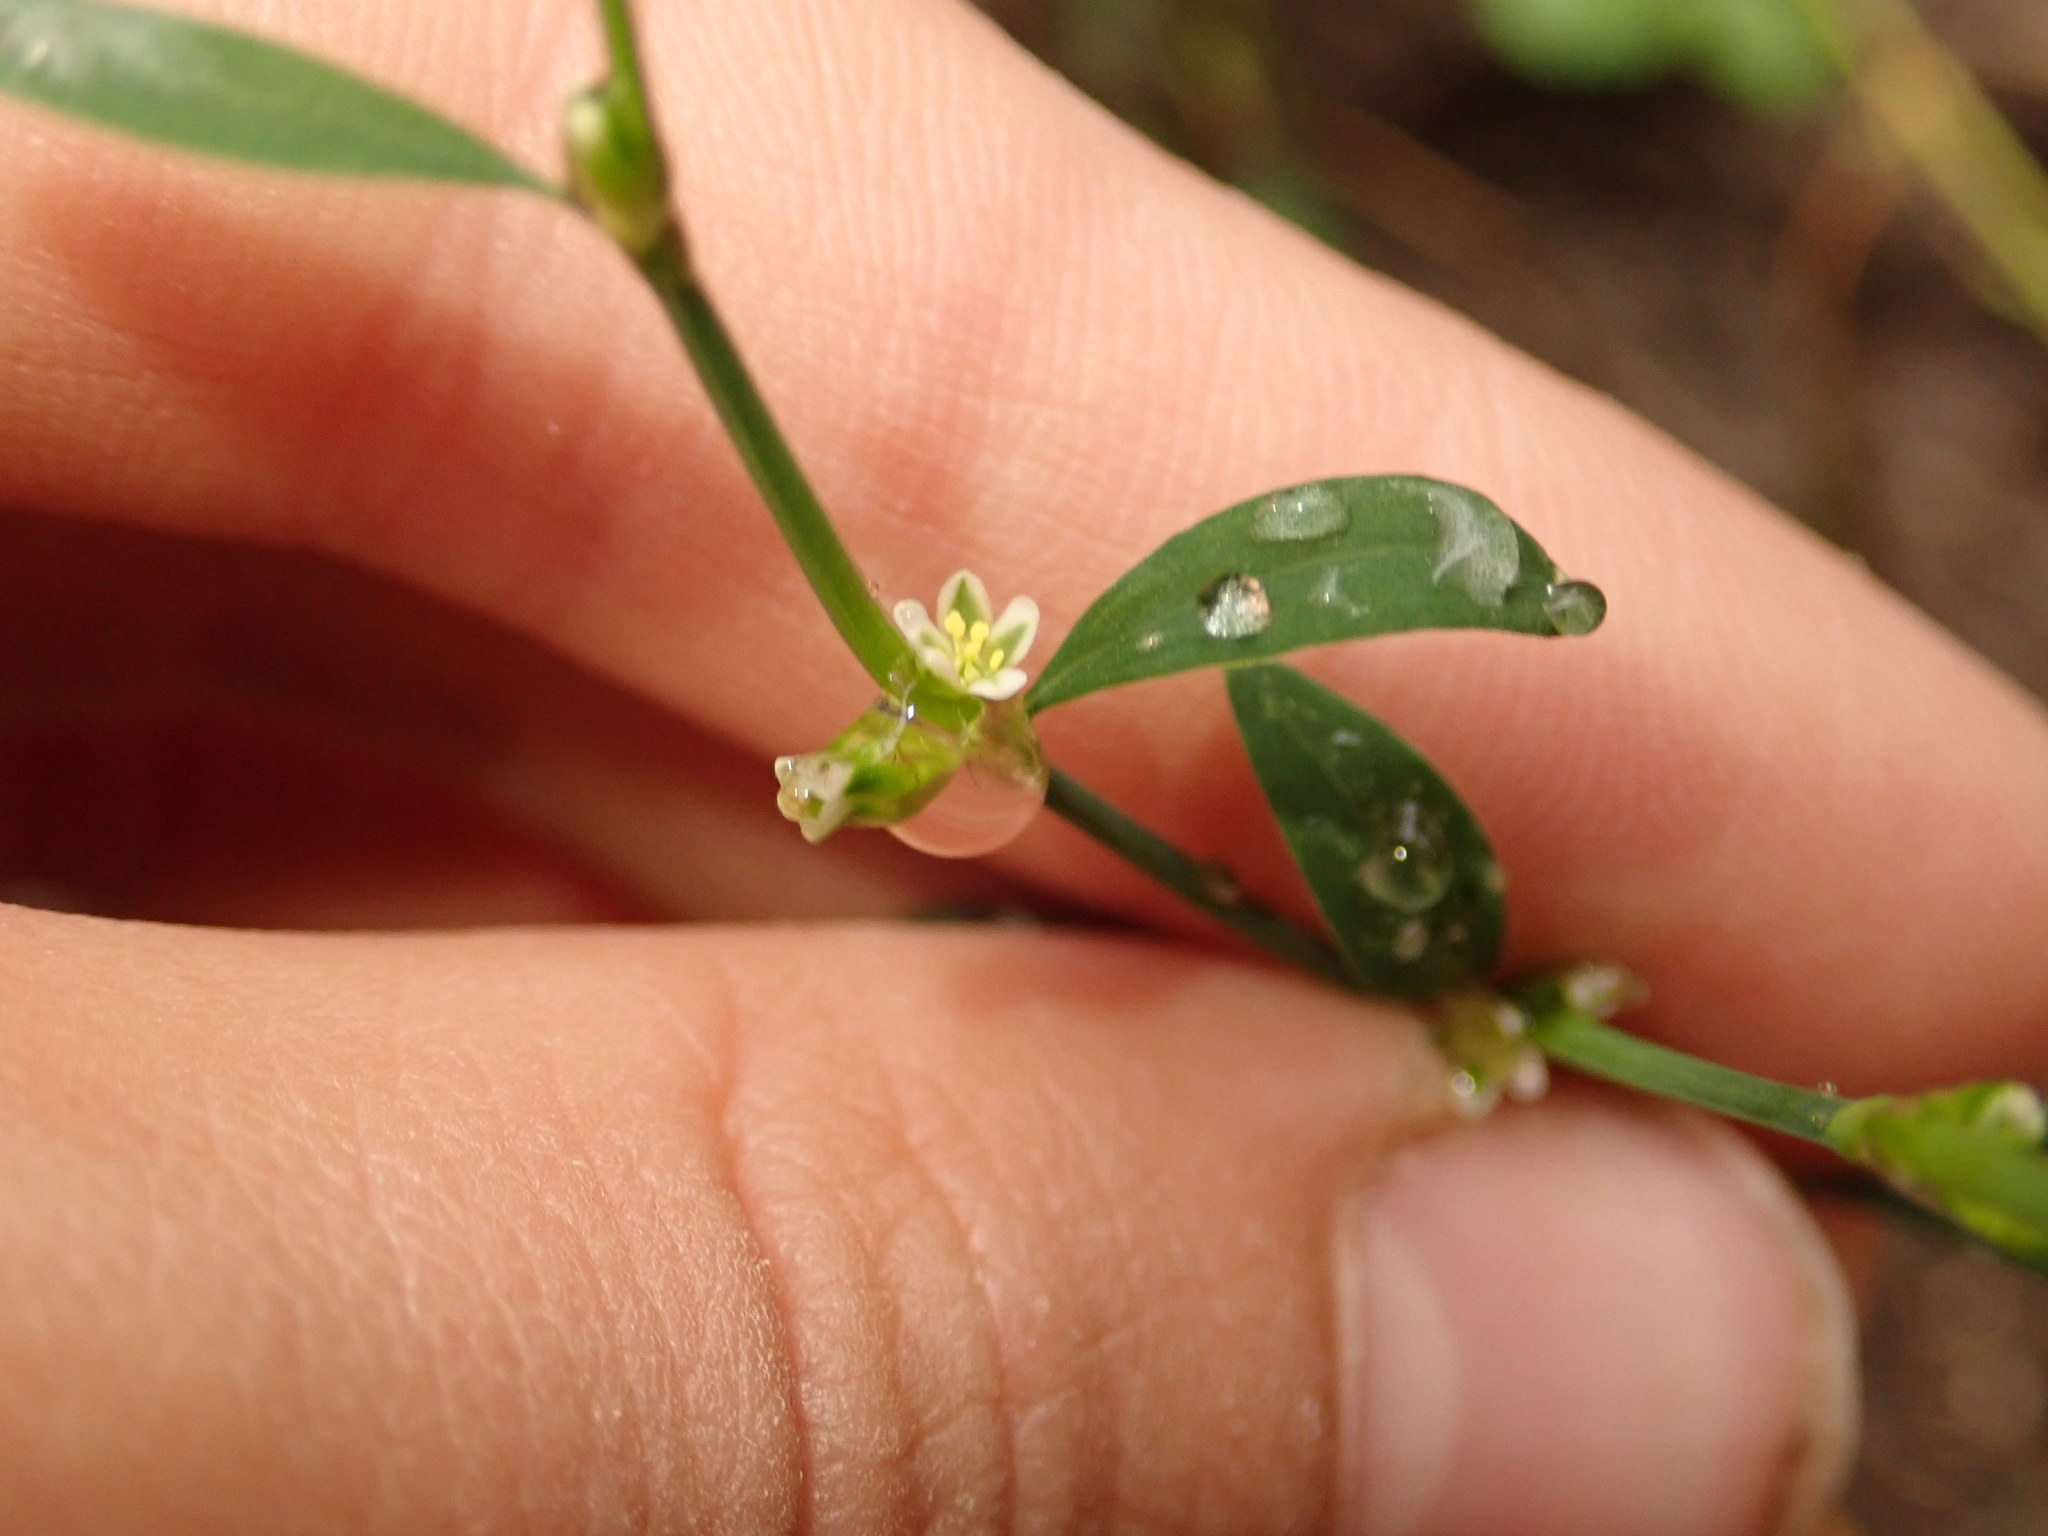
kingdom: Plantae
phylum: Tracheophyta
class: Magnoliopsida
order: Caryophyllales
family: Polygonaceae
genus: Polygonum
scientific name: Polygonum aviculare
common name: Prostrate knotweed
